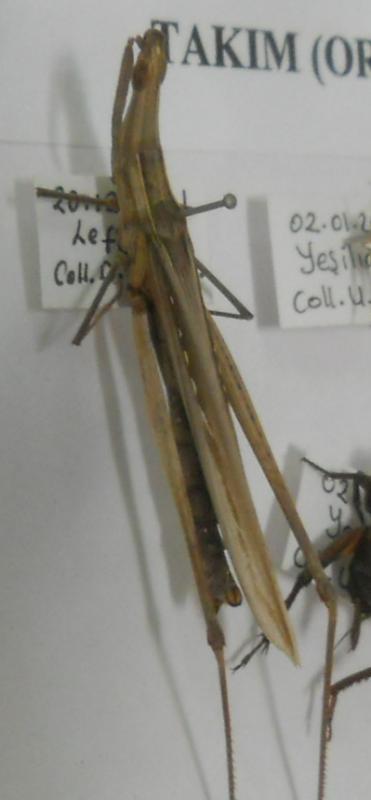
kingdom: Animalia
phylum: Arthropoda
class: Insecta
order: Orthoptera
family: Acrididae
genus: Acrida
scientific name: Acrida ungarica
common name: Common cone-headed grasshopper
